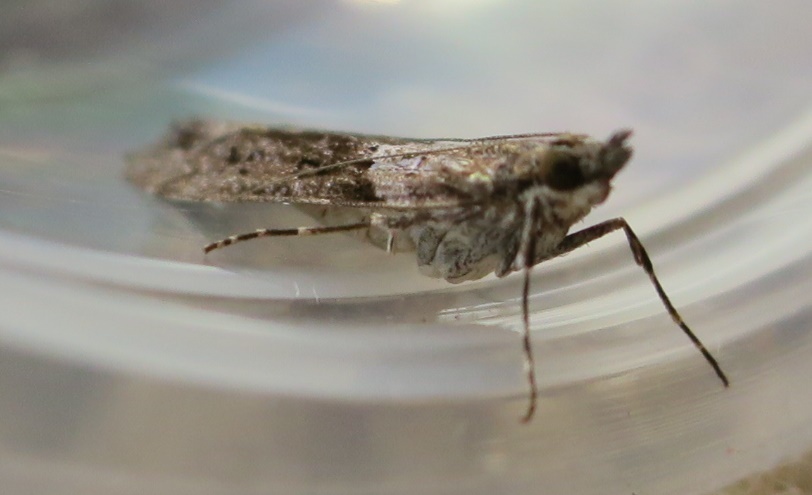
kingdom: Animalia
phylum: Arthropoda
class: Insecta
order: Lepidoptera
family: Crambidae
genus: Eudonia
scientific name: Eudonia submarginalis
